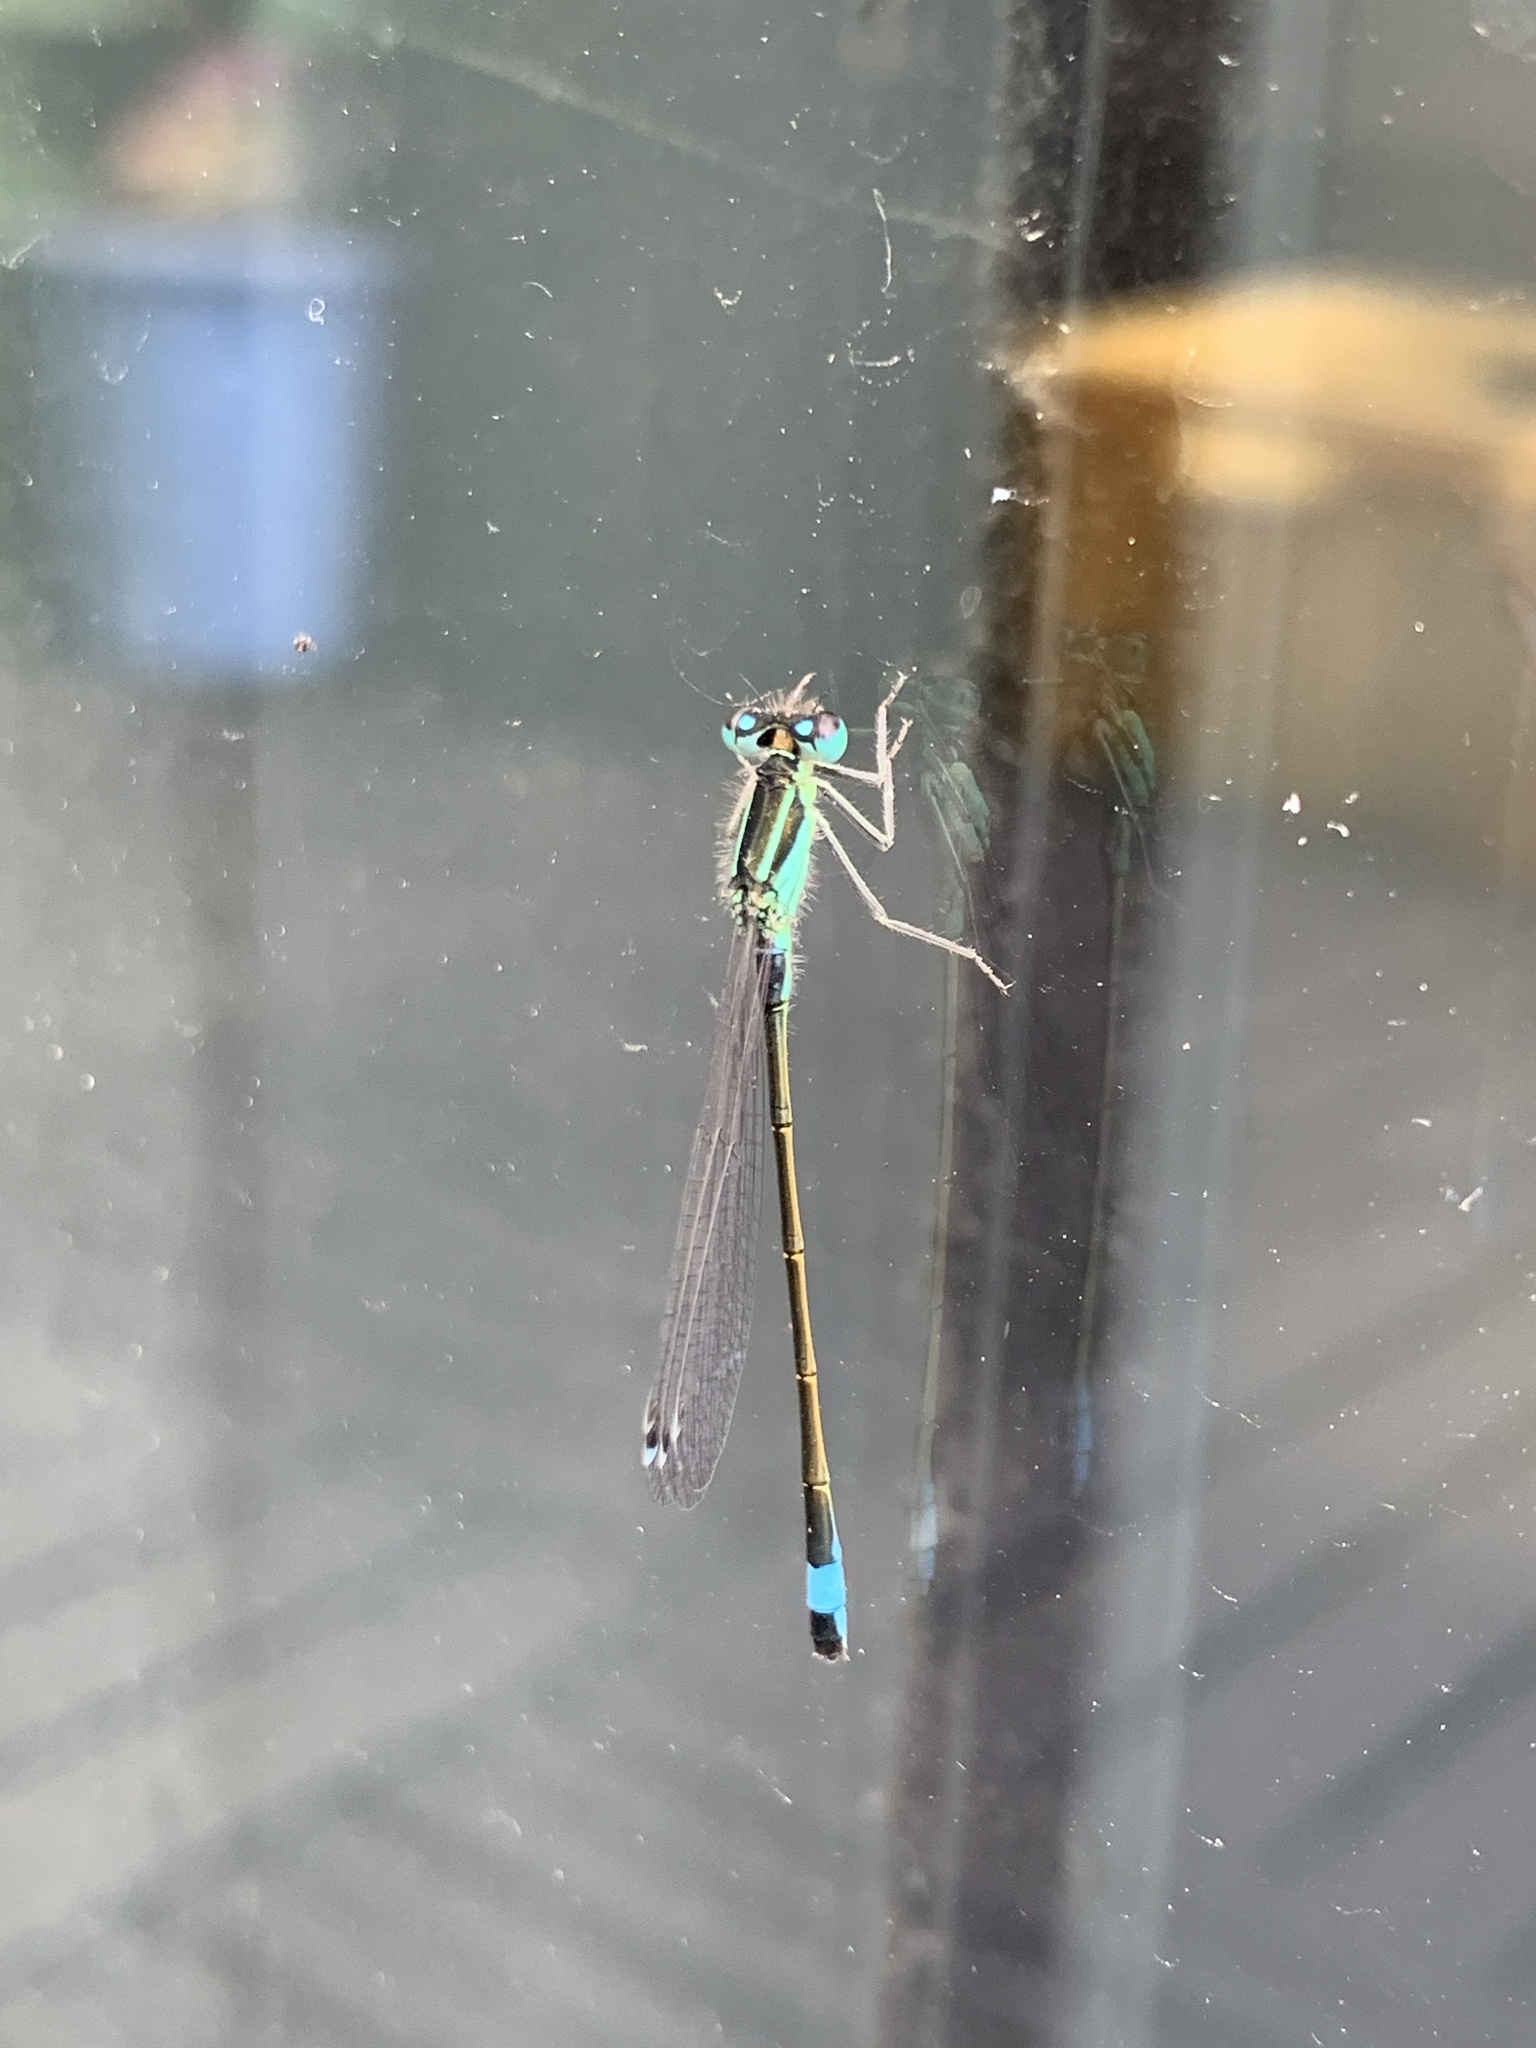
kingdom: Animalia
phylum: Arthropoda
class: Insecta
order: Odonata
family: Coenagrionidae
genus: Ischnura
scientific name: Ischnura elegans
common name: Blue-tailed damselfly
